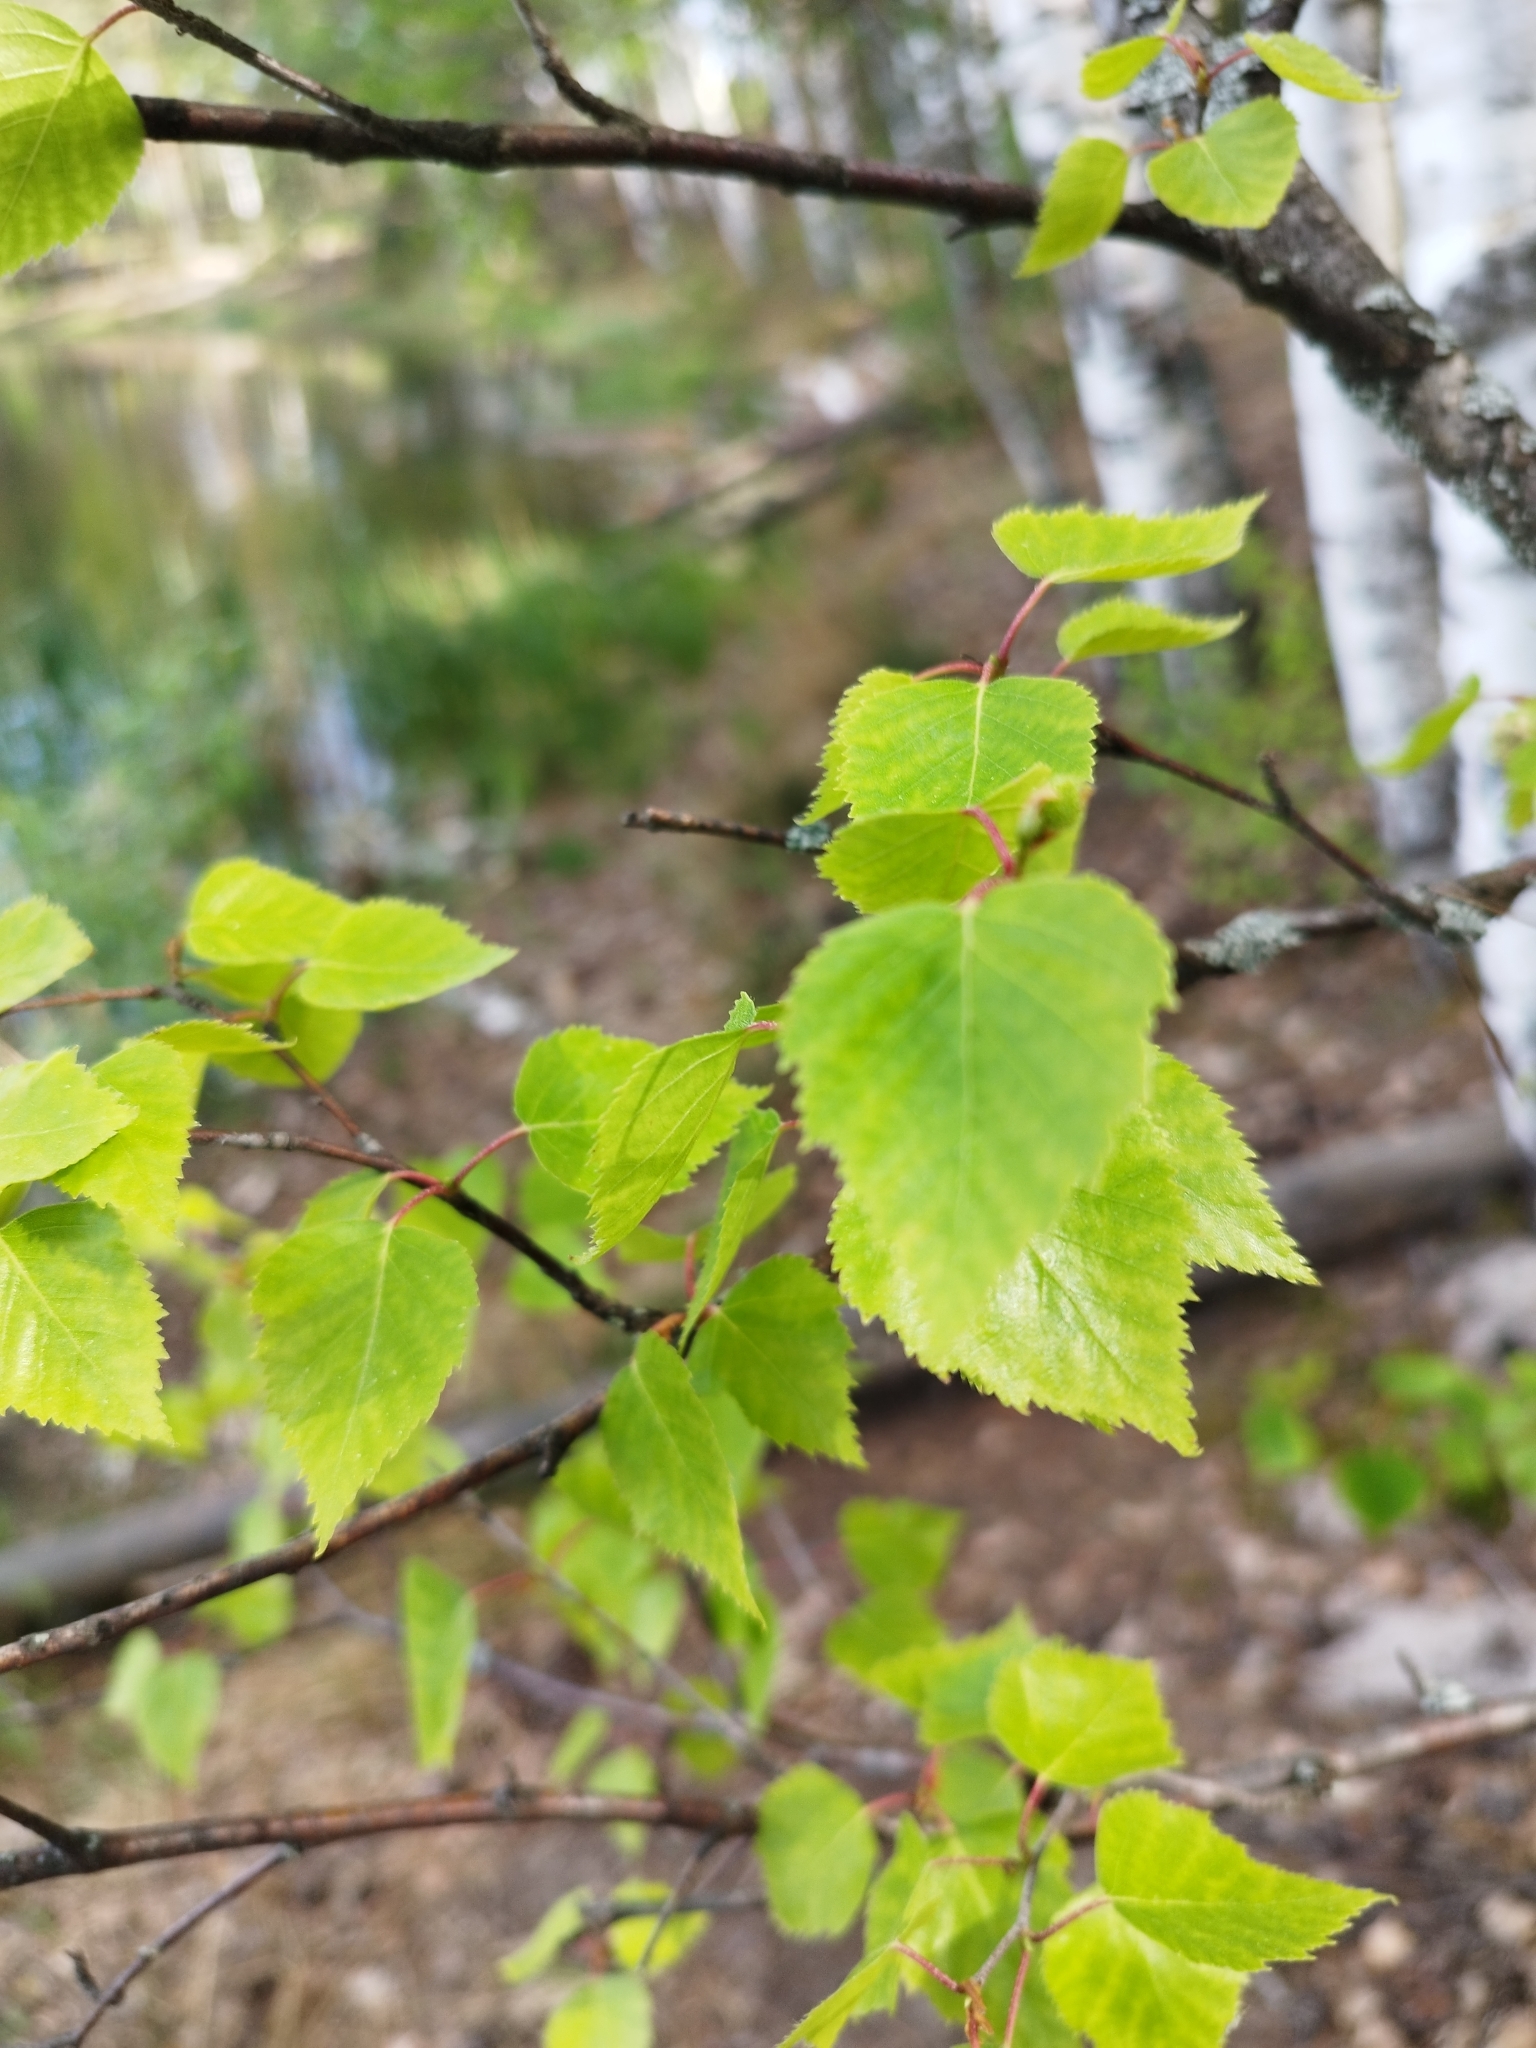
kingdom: Plantae
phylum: Tracheophyta
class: Magnoliopsida
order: Fagales
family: Betulaceae
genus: Betula
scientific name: Betula pendula
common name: Silver birch
